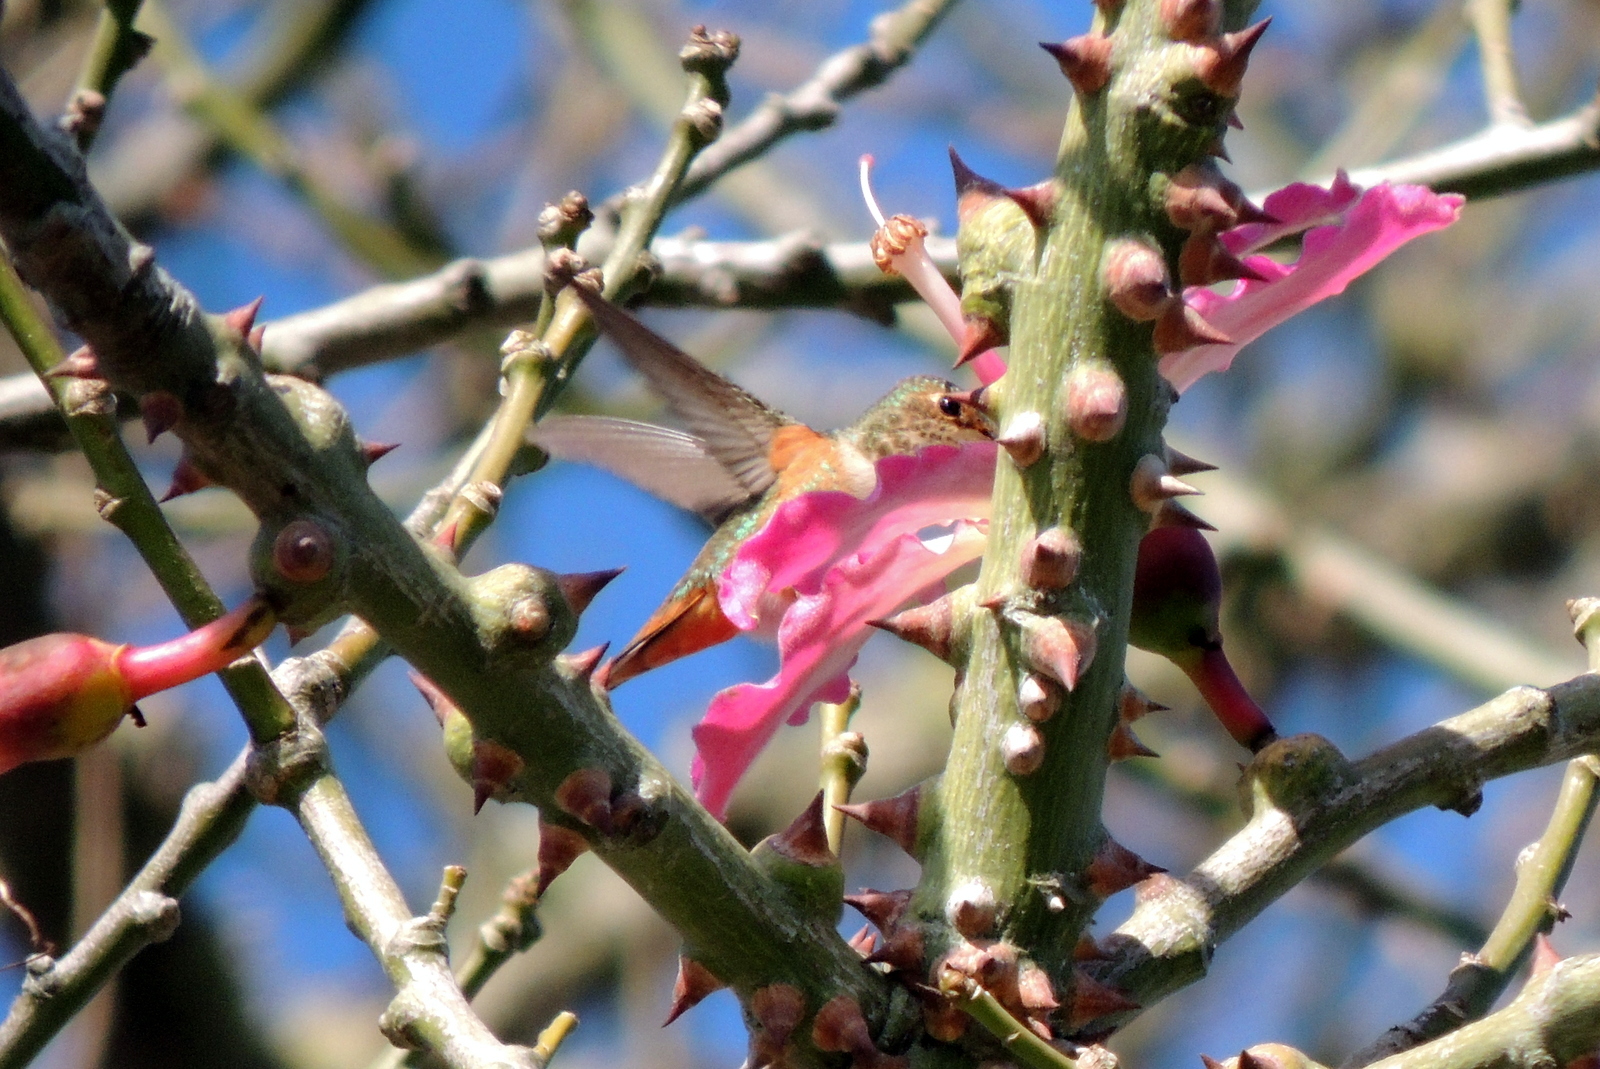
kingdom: Animalia
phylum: Chordata
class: Aves
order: Apodiformes
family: Trochilidae
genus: Selasphorus
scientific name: Selasphorus sasin
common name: Allen's hummingbird
